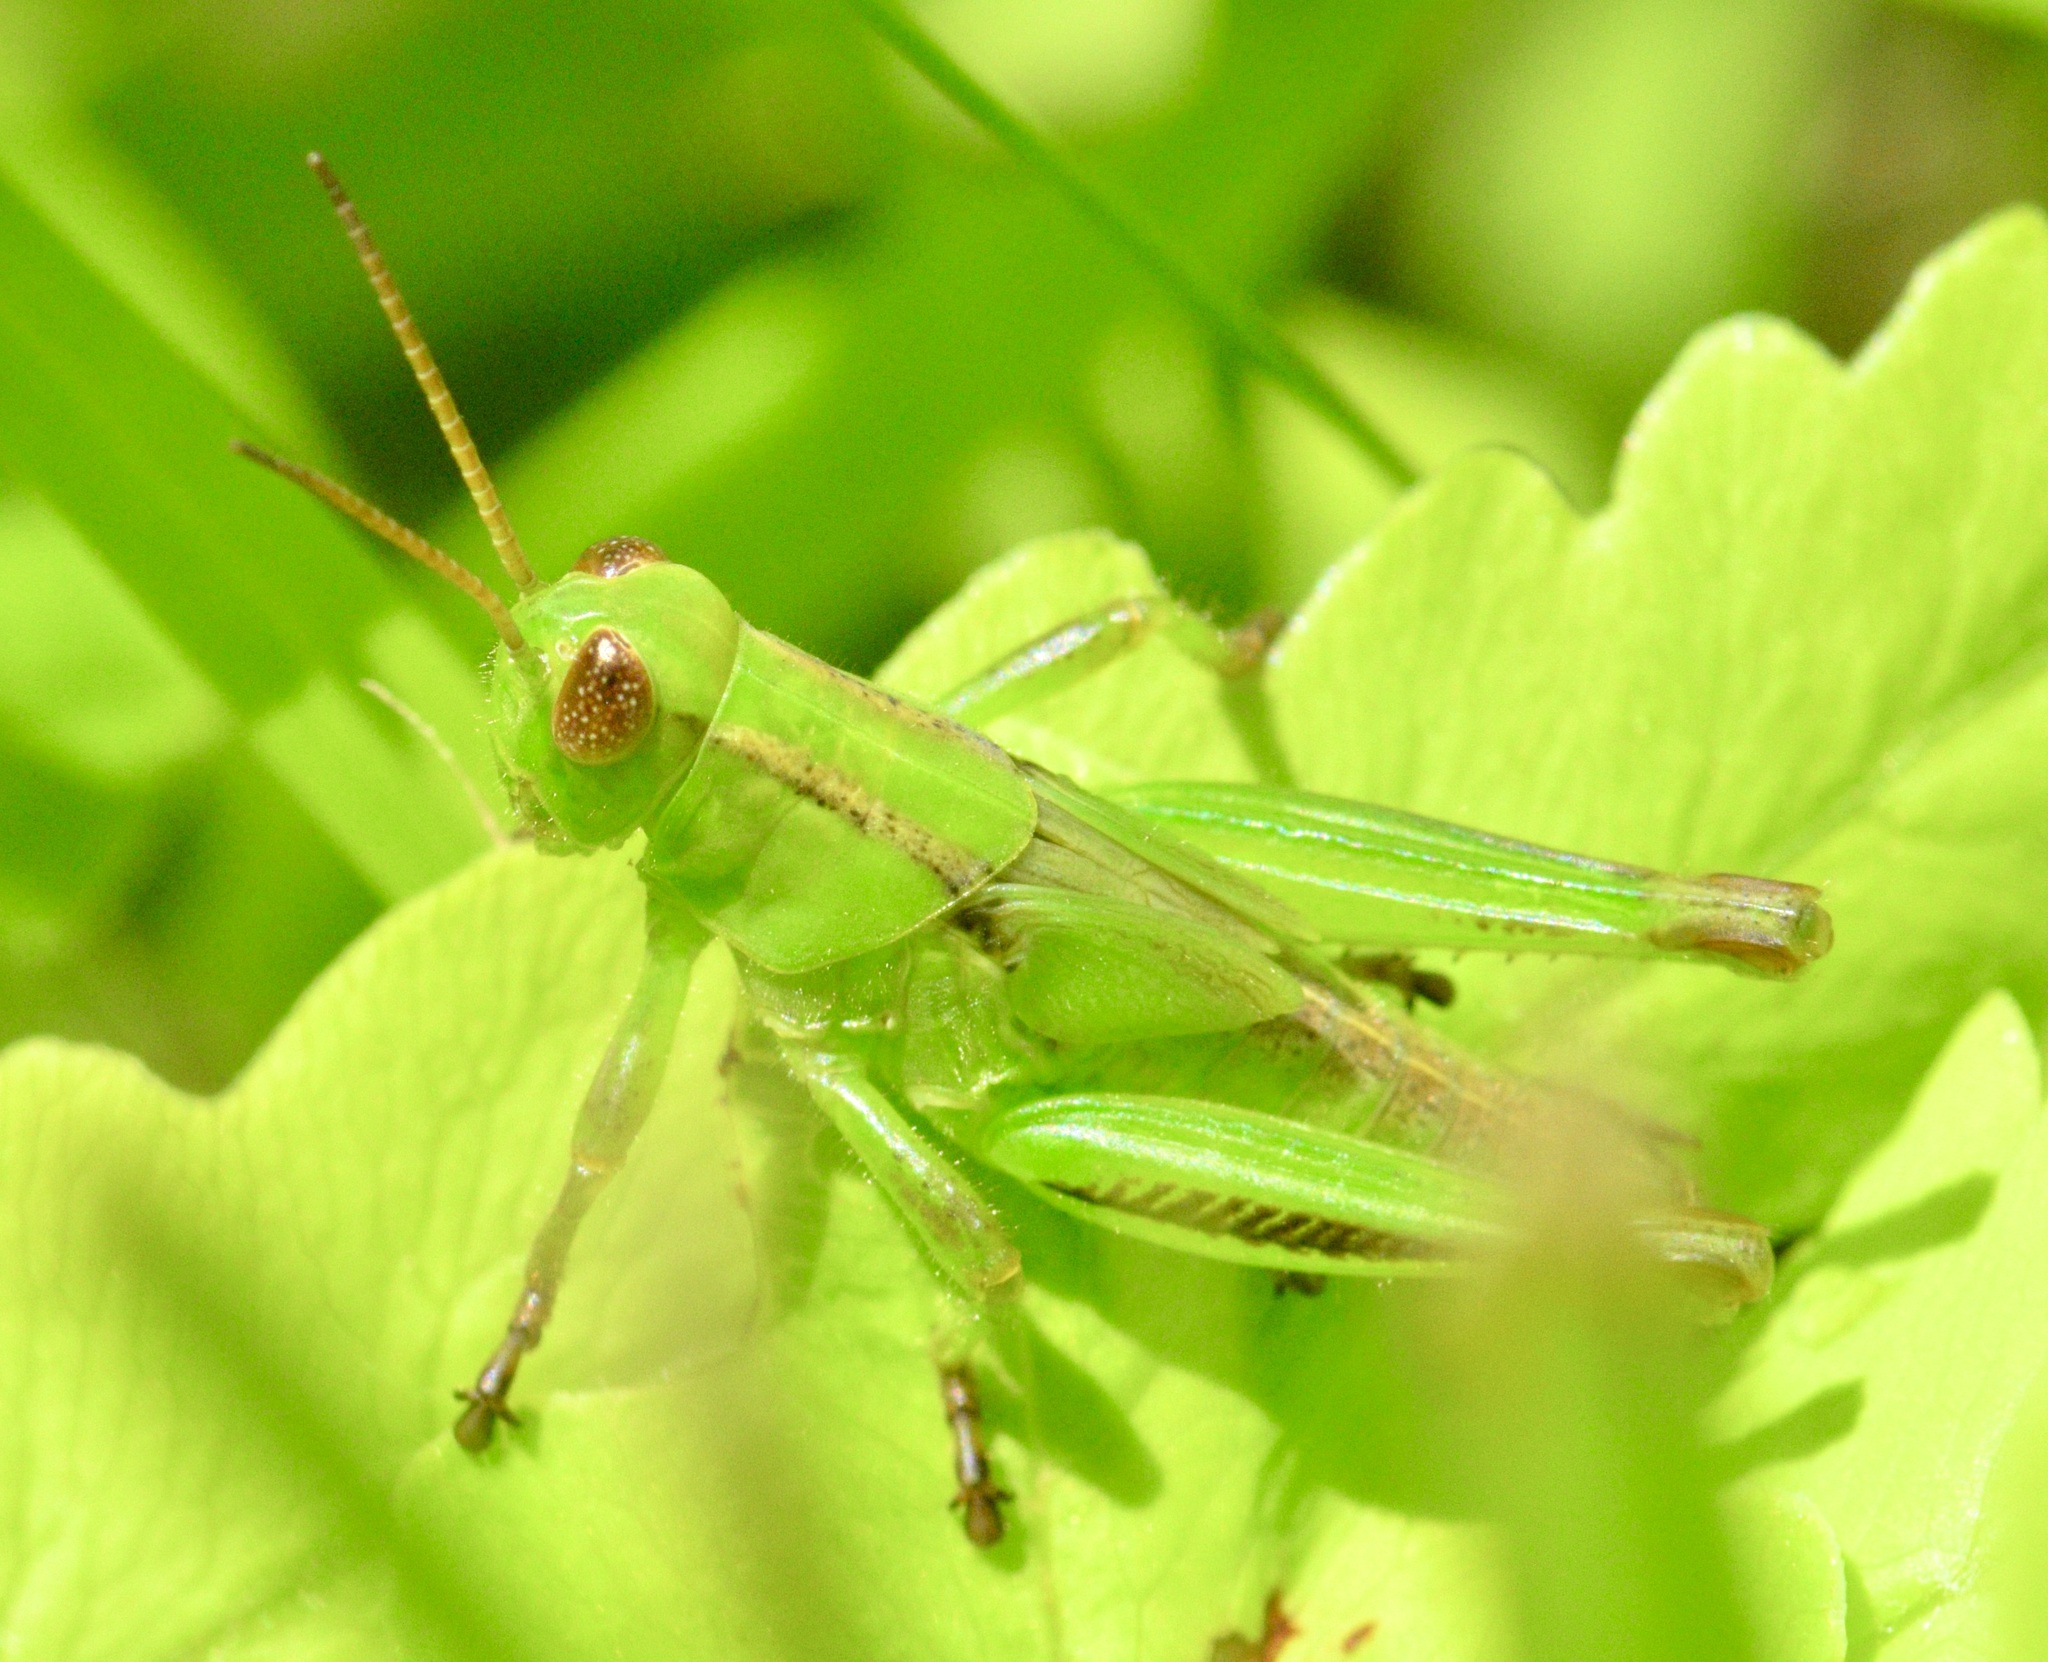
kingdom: Animalia
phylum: Arthropoda
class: Insecta
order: Orthoptera
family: Acrididae
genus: Melanoplus
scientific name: Melanoplus bivittatus
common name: Two-striped grasshopper
